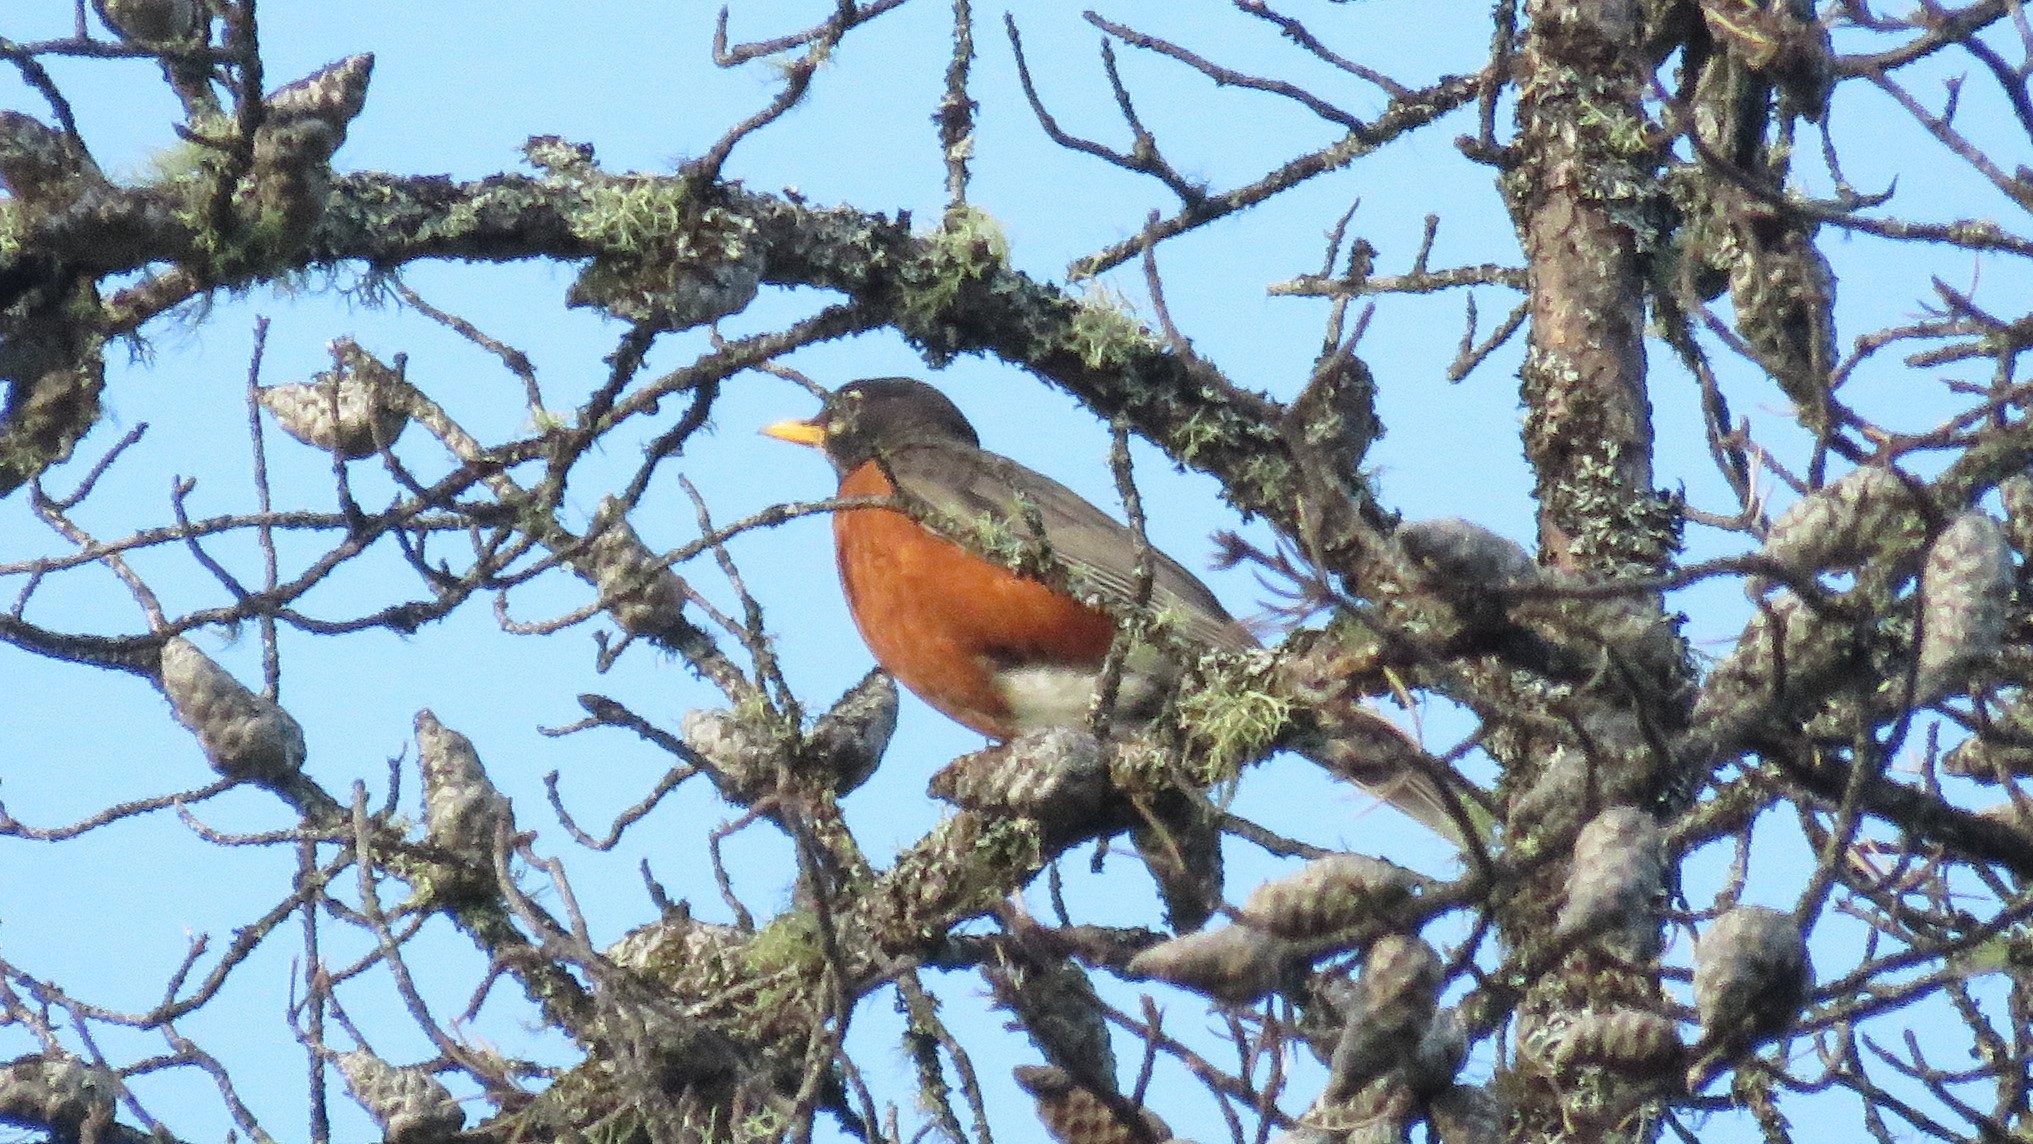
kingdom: Animalia
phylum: Chordata
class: Aves
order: Passeriformes
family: Turdidae
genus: Turdus
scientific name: Turdus migratorius
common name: American robin
